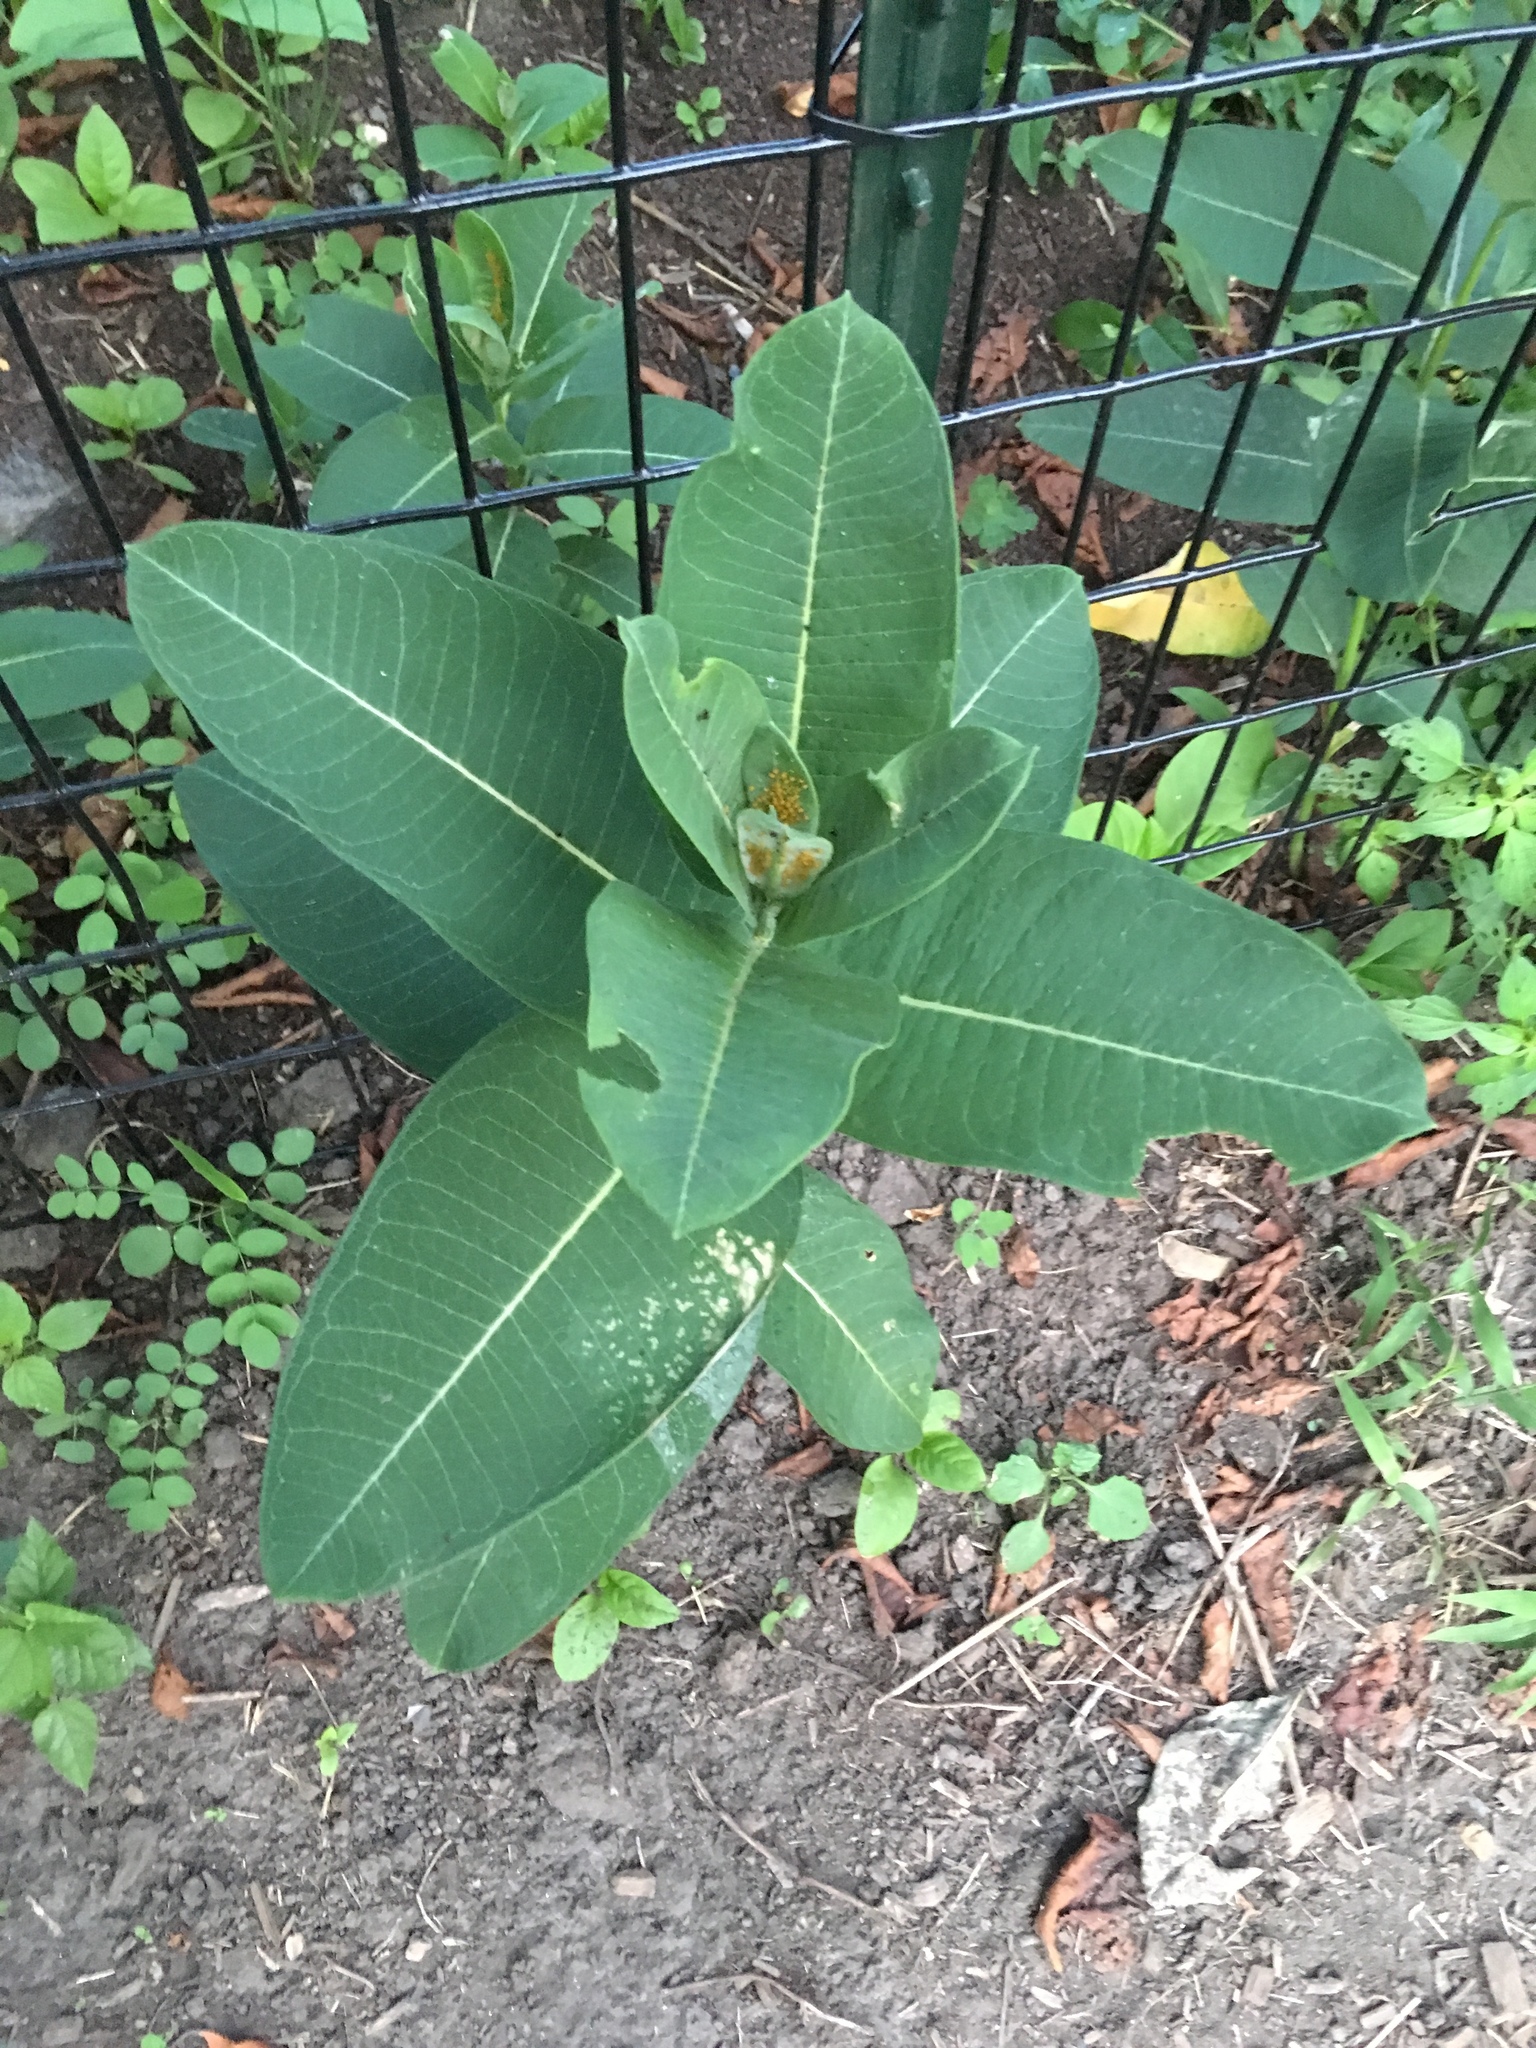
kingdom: Plantae
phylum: Tracheophyta
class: Magnoliopsida
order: Gentianales
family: Apocynaceae
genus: Asclepias
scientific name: Asclepias syriaca
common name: Common milkweed
